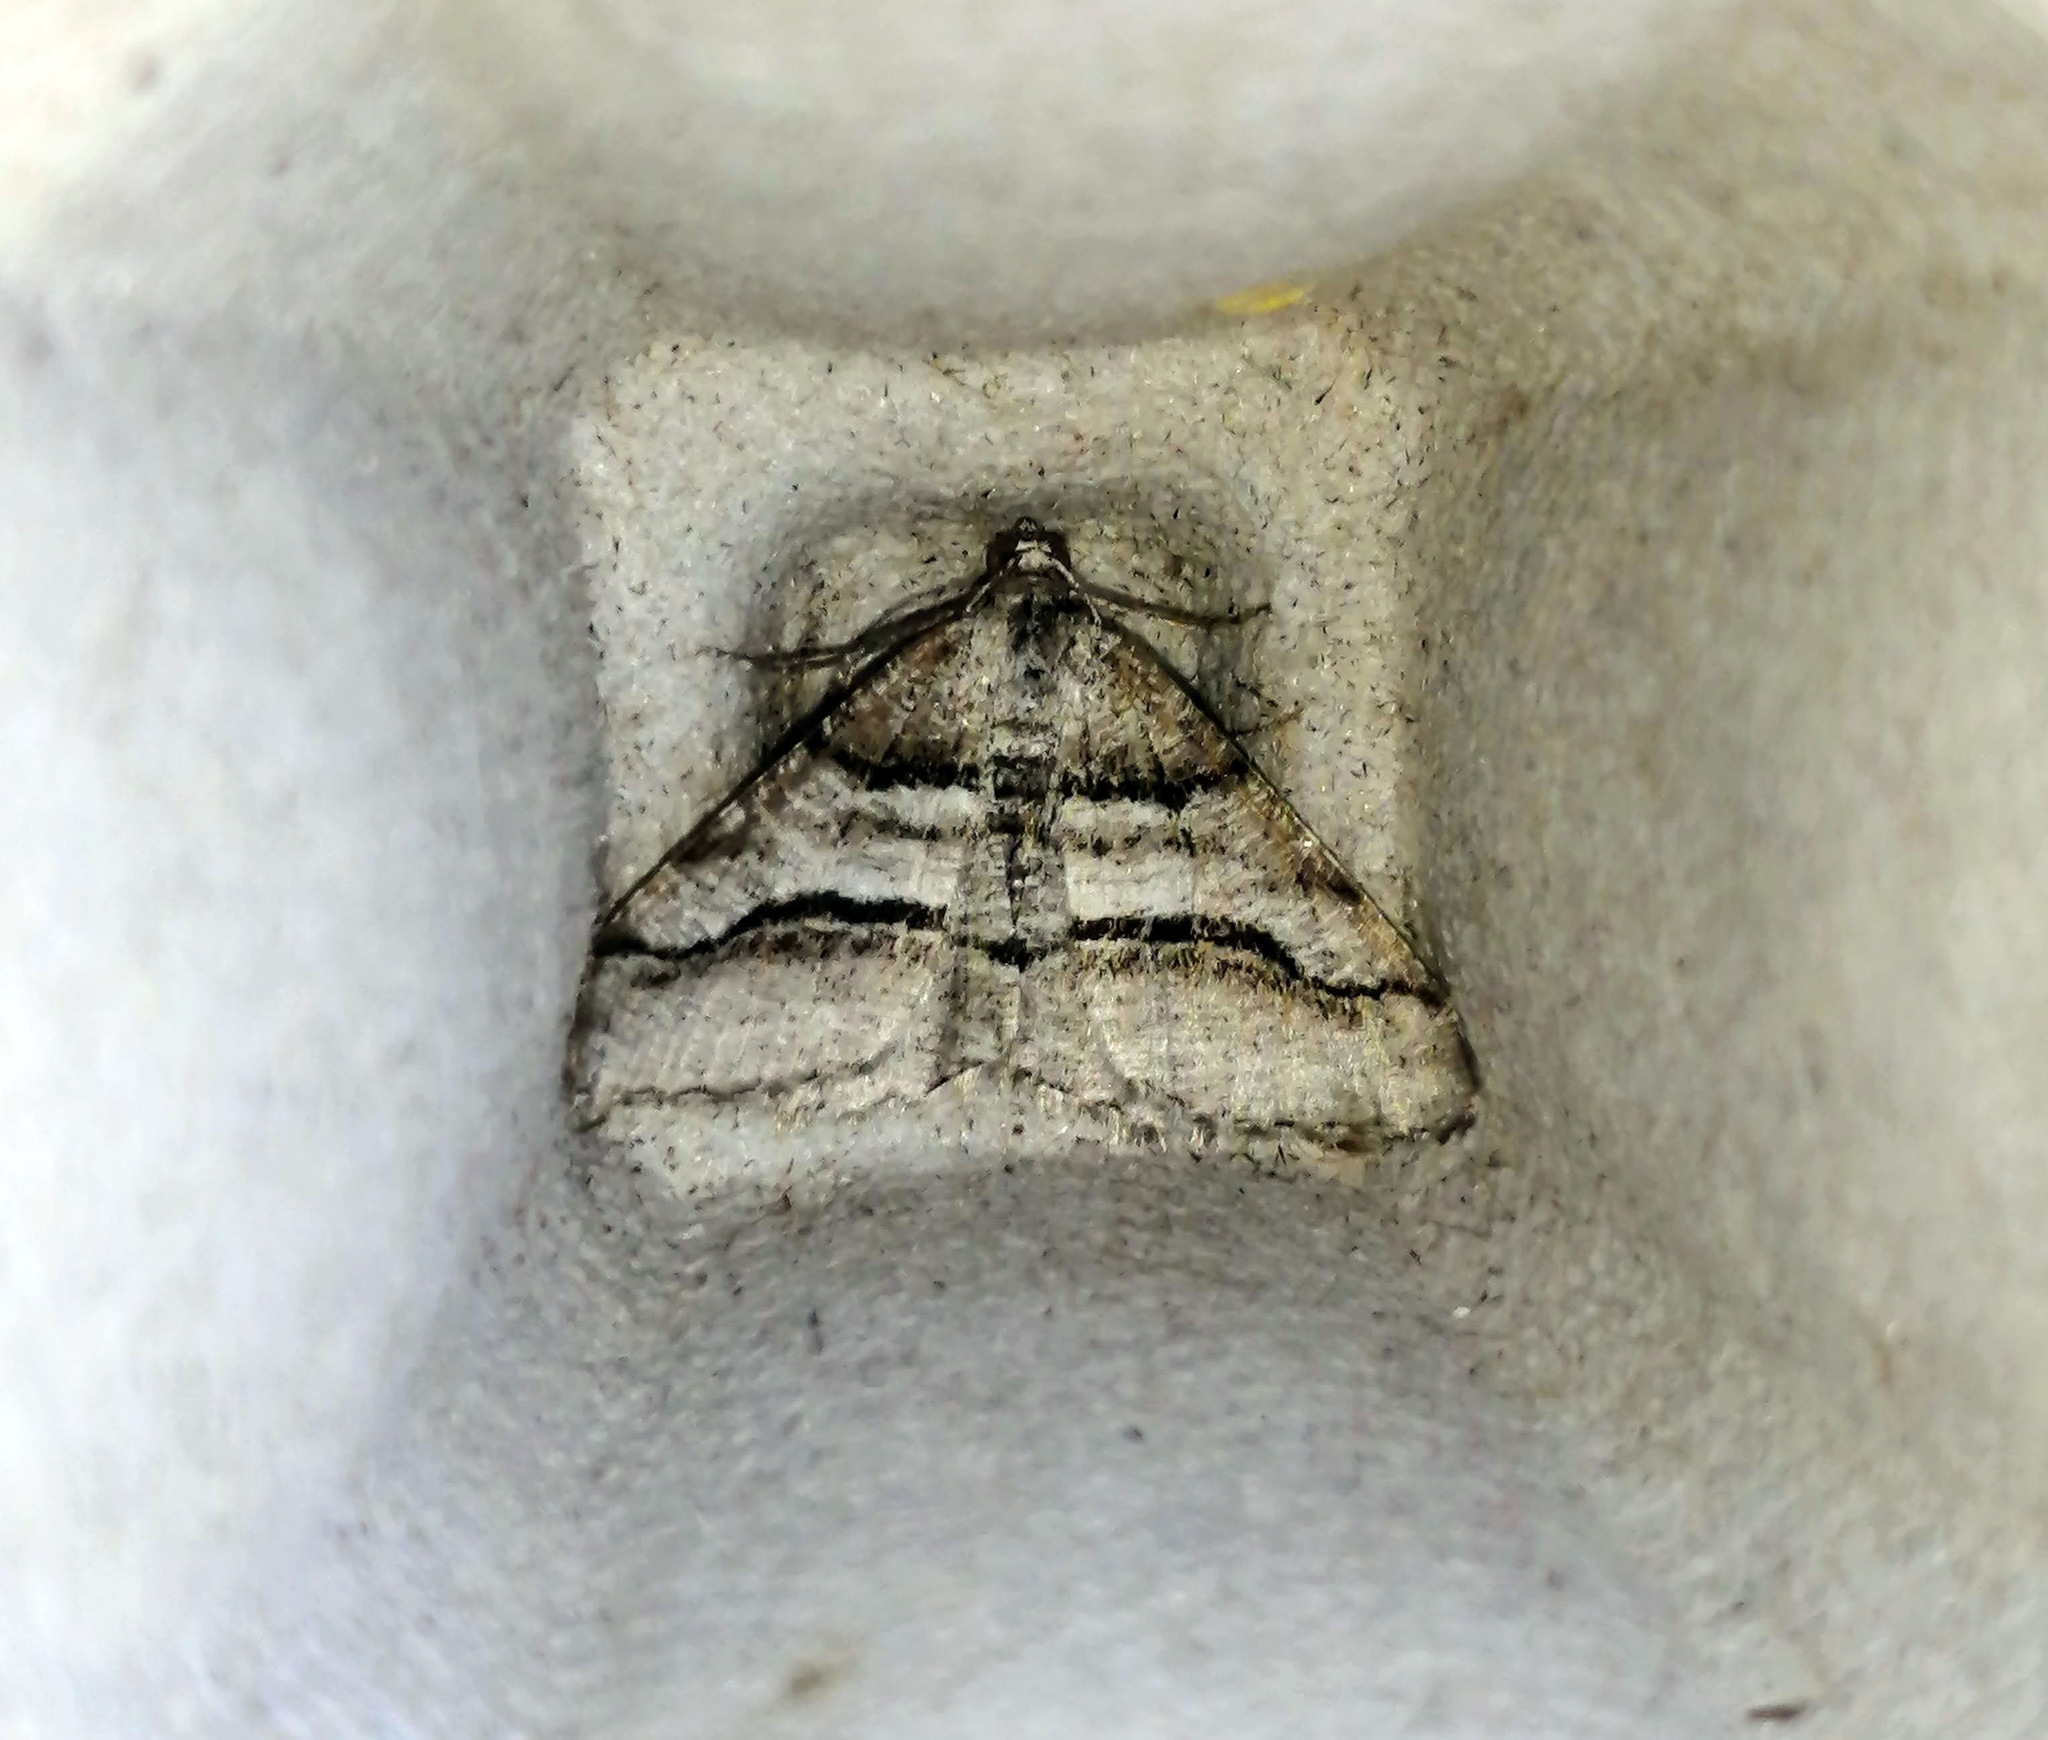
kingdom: Animalia
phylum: Arthropoda
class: Insecta
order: Lepidoptera
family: Geometridae
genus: Digrammia
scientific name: Digrammia continuata
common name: Curve-lined angle
